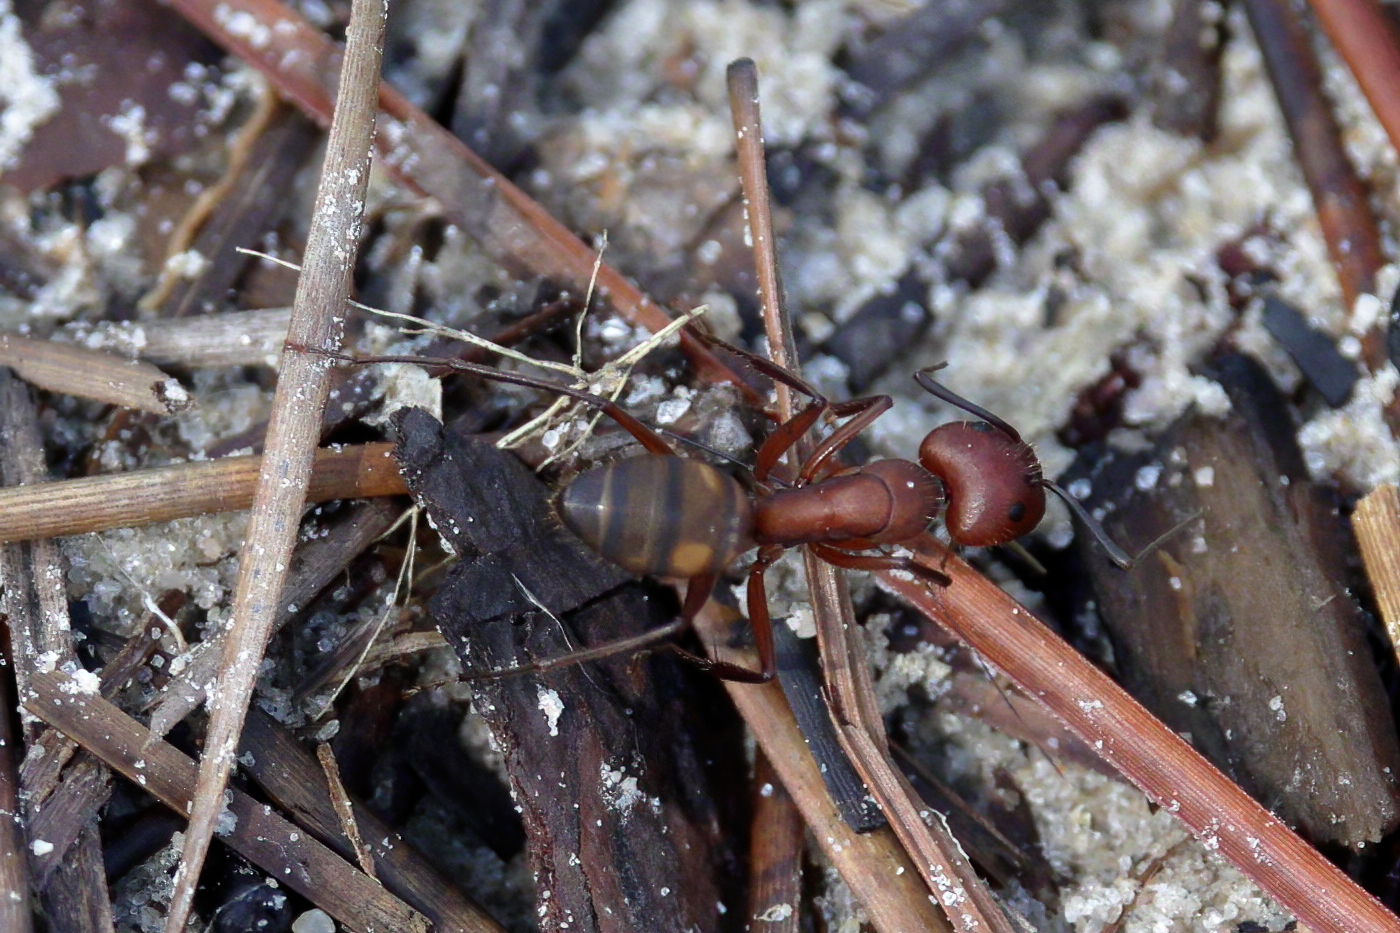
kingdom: Animalia
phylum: Arthropoda
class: Insecta
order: Hymenoptera
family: Formicidae
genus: Camponotus
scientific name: Camponotus socius
